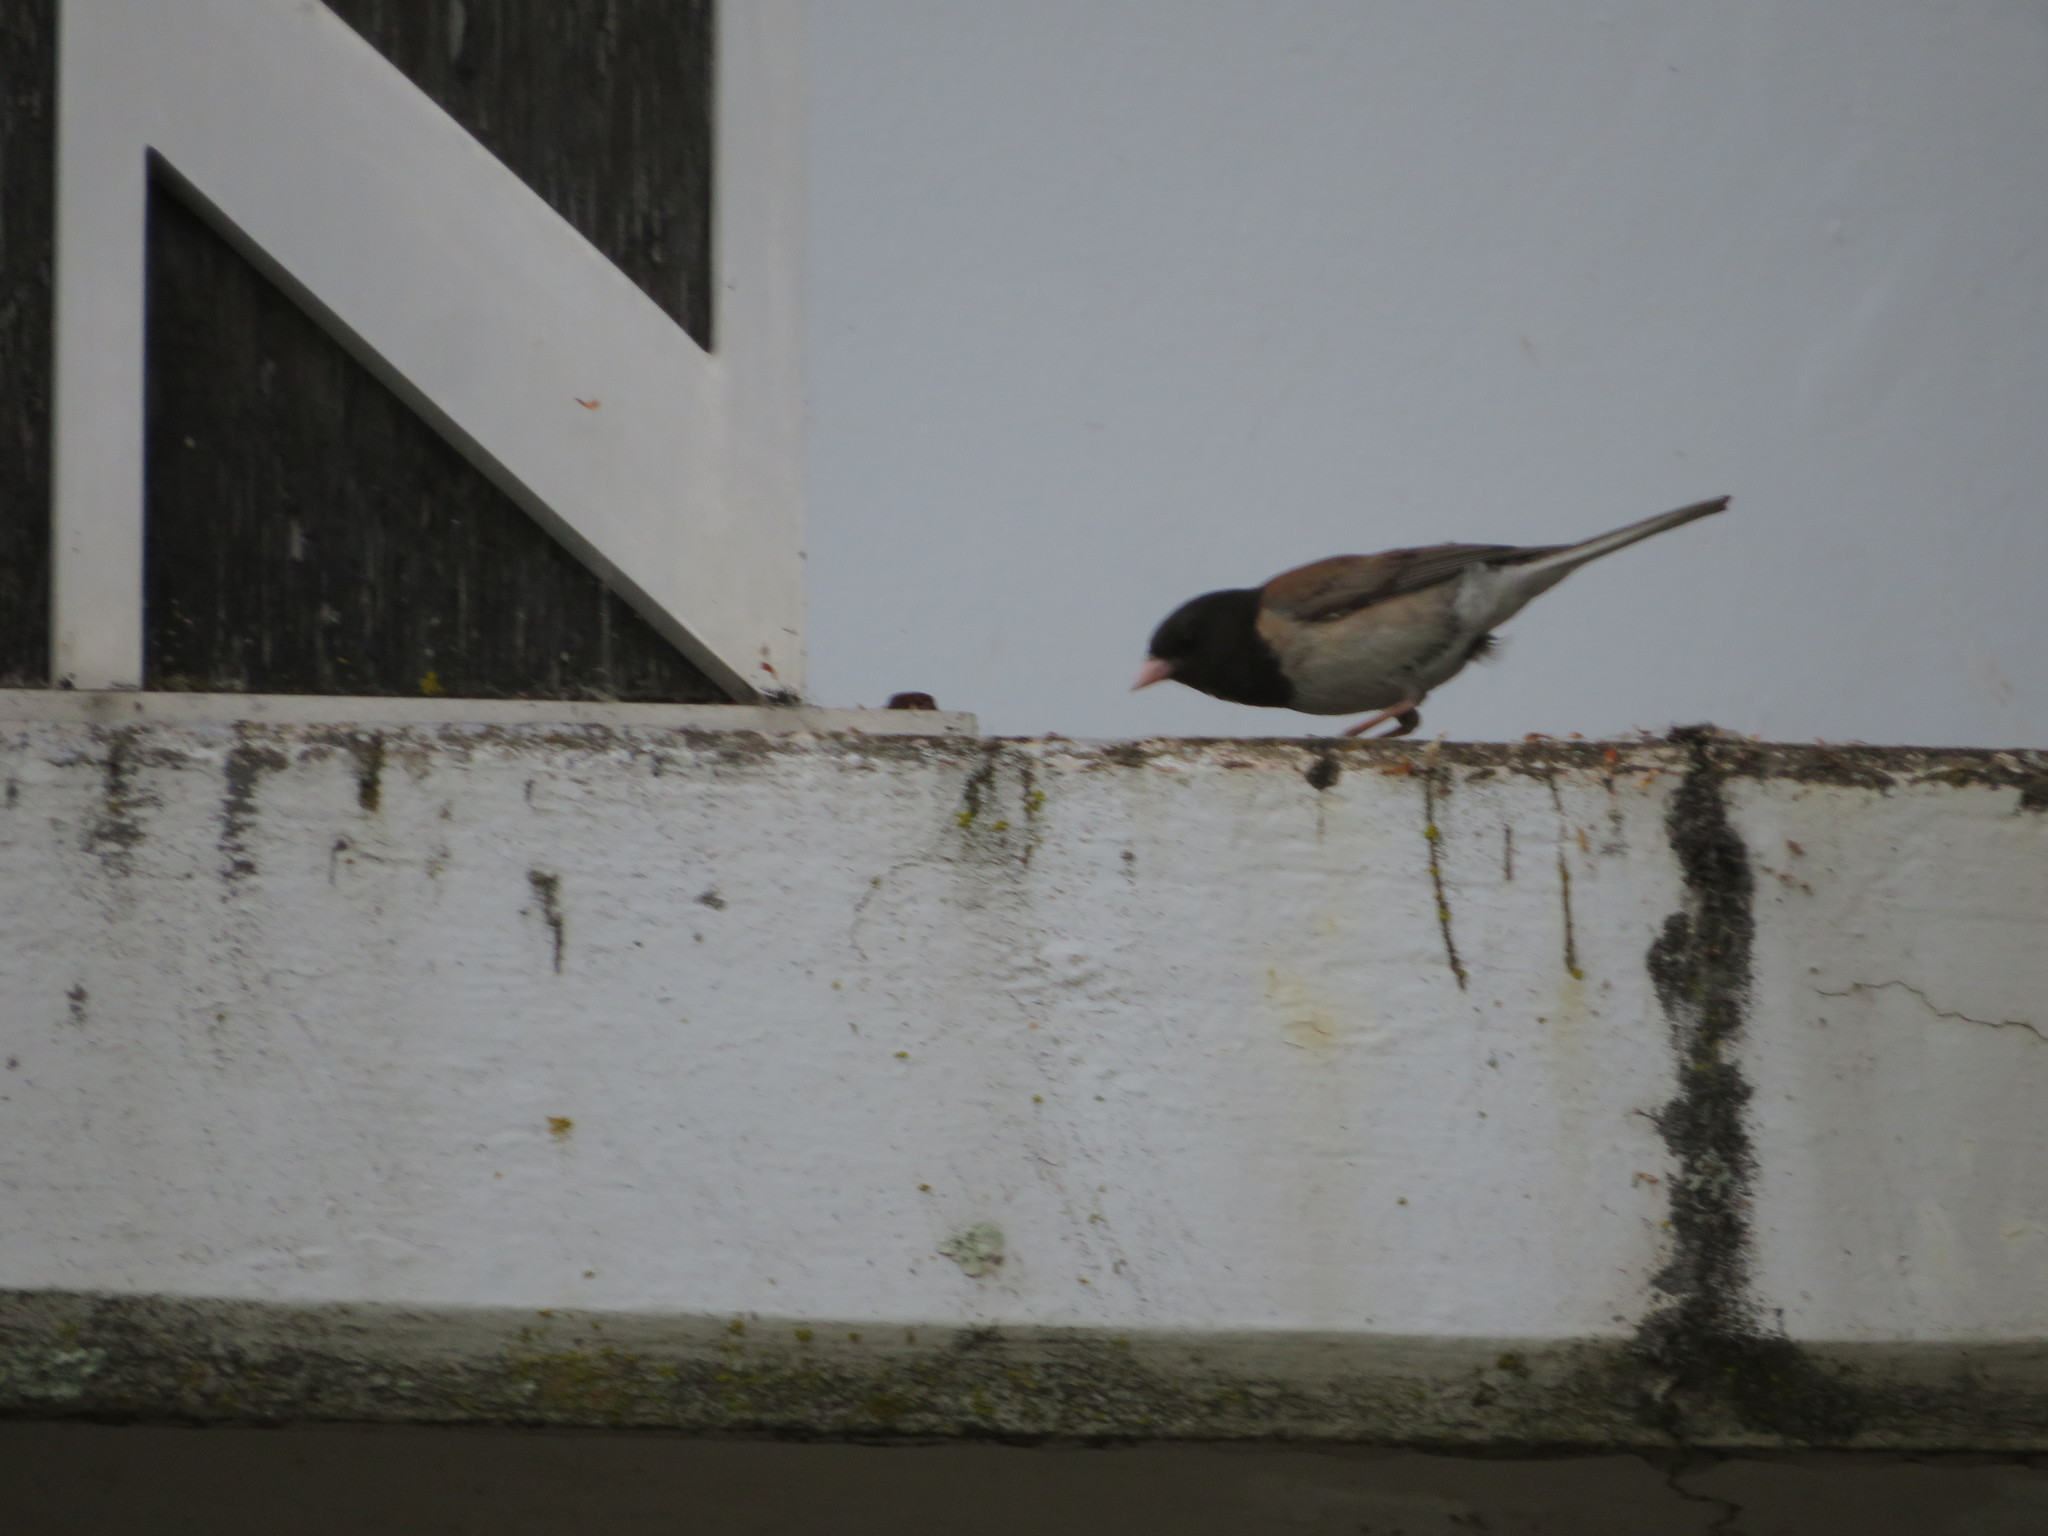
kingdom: Animalia
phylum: Chordata
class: Aves
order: Passeriformes
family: Passerellidae
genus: Junco
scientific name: Junco hyemalis
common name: Dark-eyed junco
